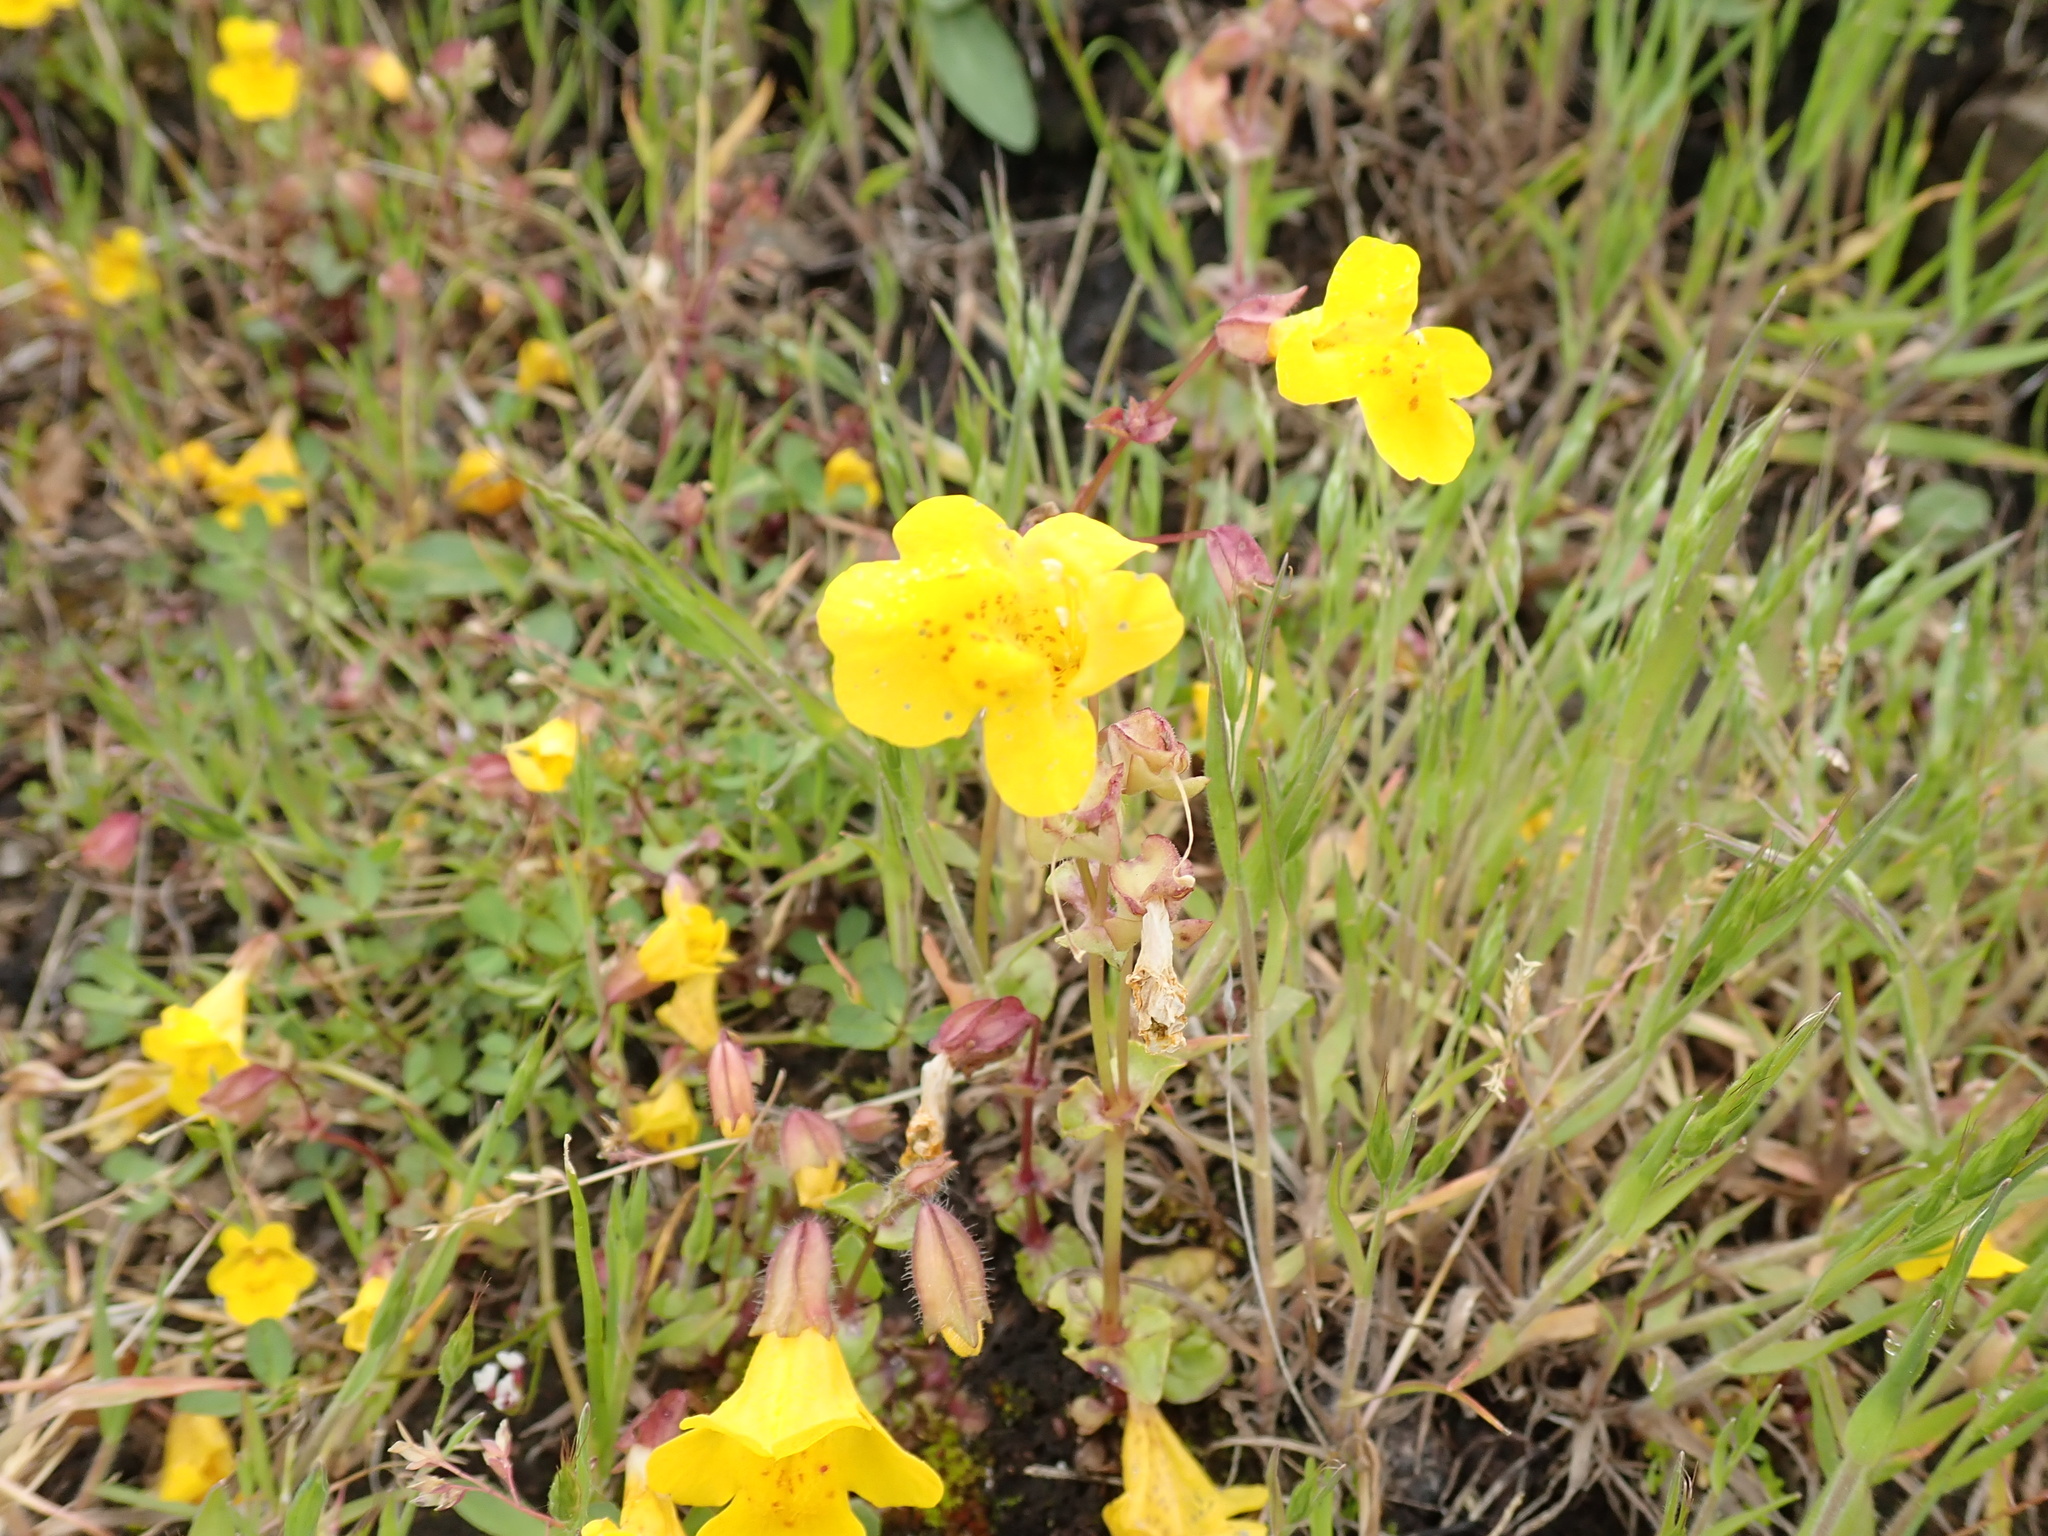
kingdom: Plantae
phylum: Tracheophyta
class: Magnoliopsida
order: Lamiales
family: Phrymaceae
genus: Erythranthe
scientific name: Erythranthe microphylla
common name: Bentham's monkeyflower
